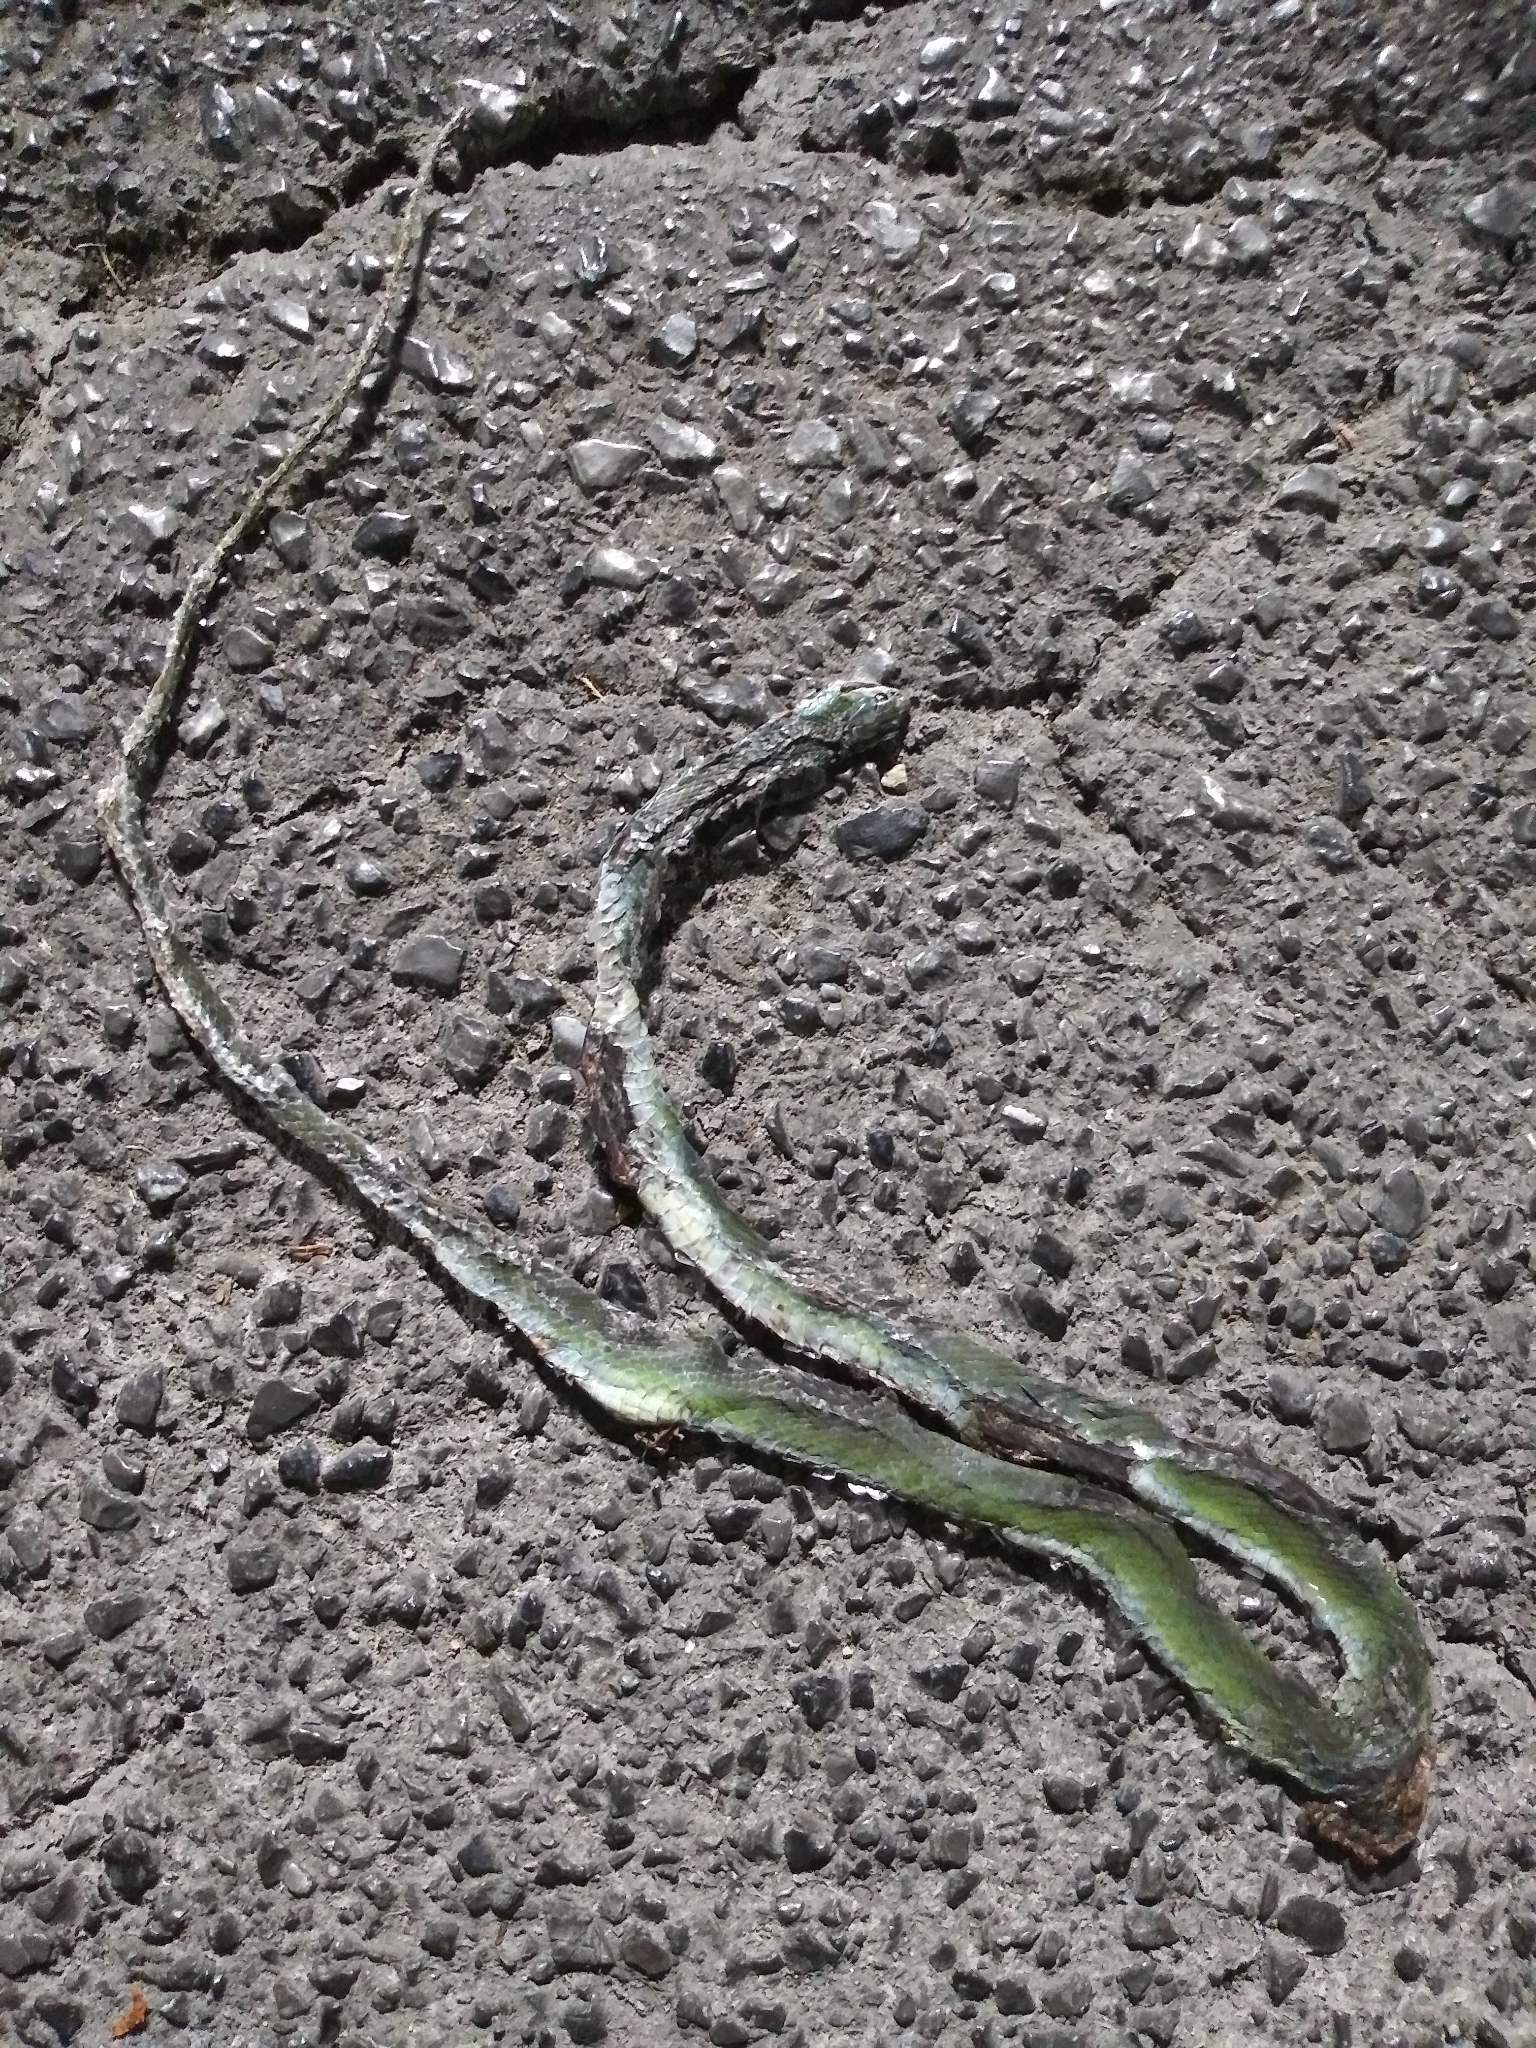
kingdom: Animalia
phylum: Chordata
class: Squamata
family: Colubridae
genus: Opheodrys
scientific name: Opheodrys aestivus
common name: Rough greensnake
